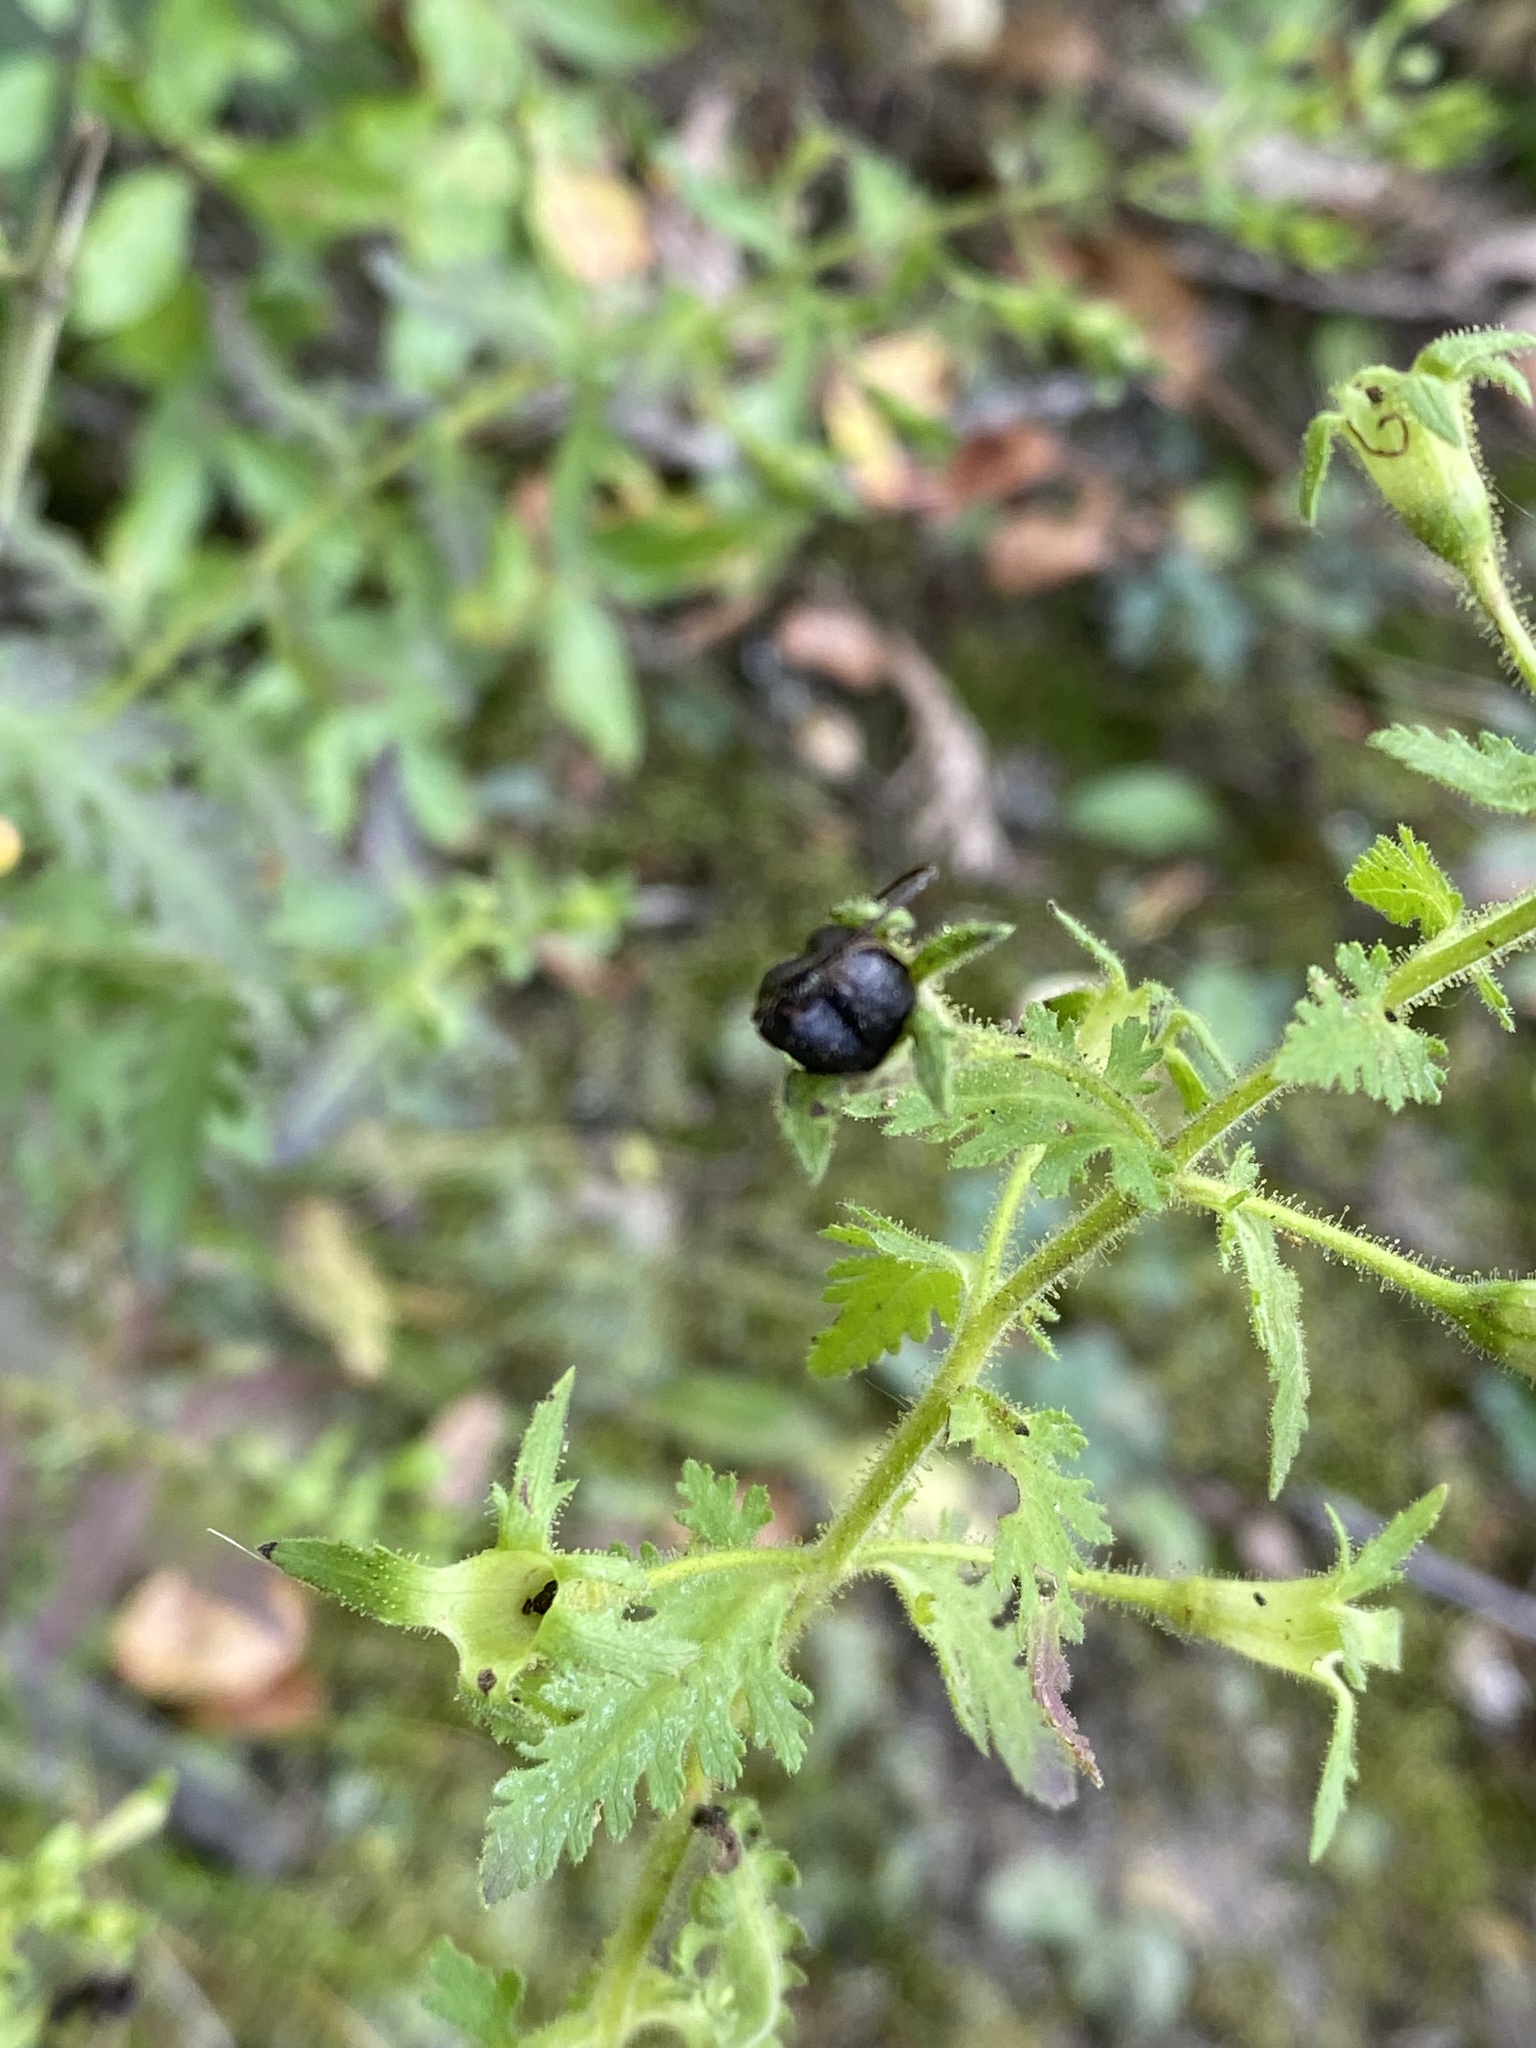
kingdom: Plantae
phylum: Tracheophyta
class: Magnoliopsida
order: Lamiales
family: Orobanchaceae
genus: Aureolaria
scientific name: Aureolaria pedicularia
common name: Annual false foxglove
